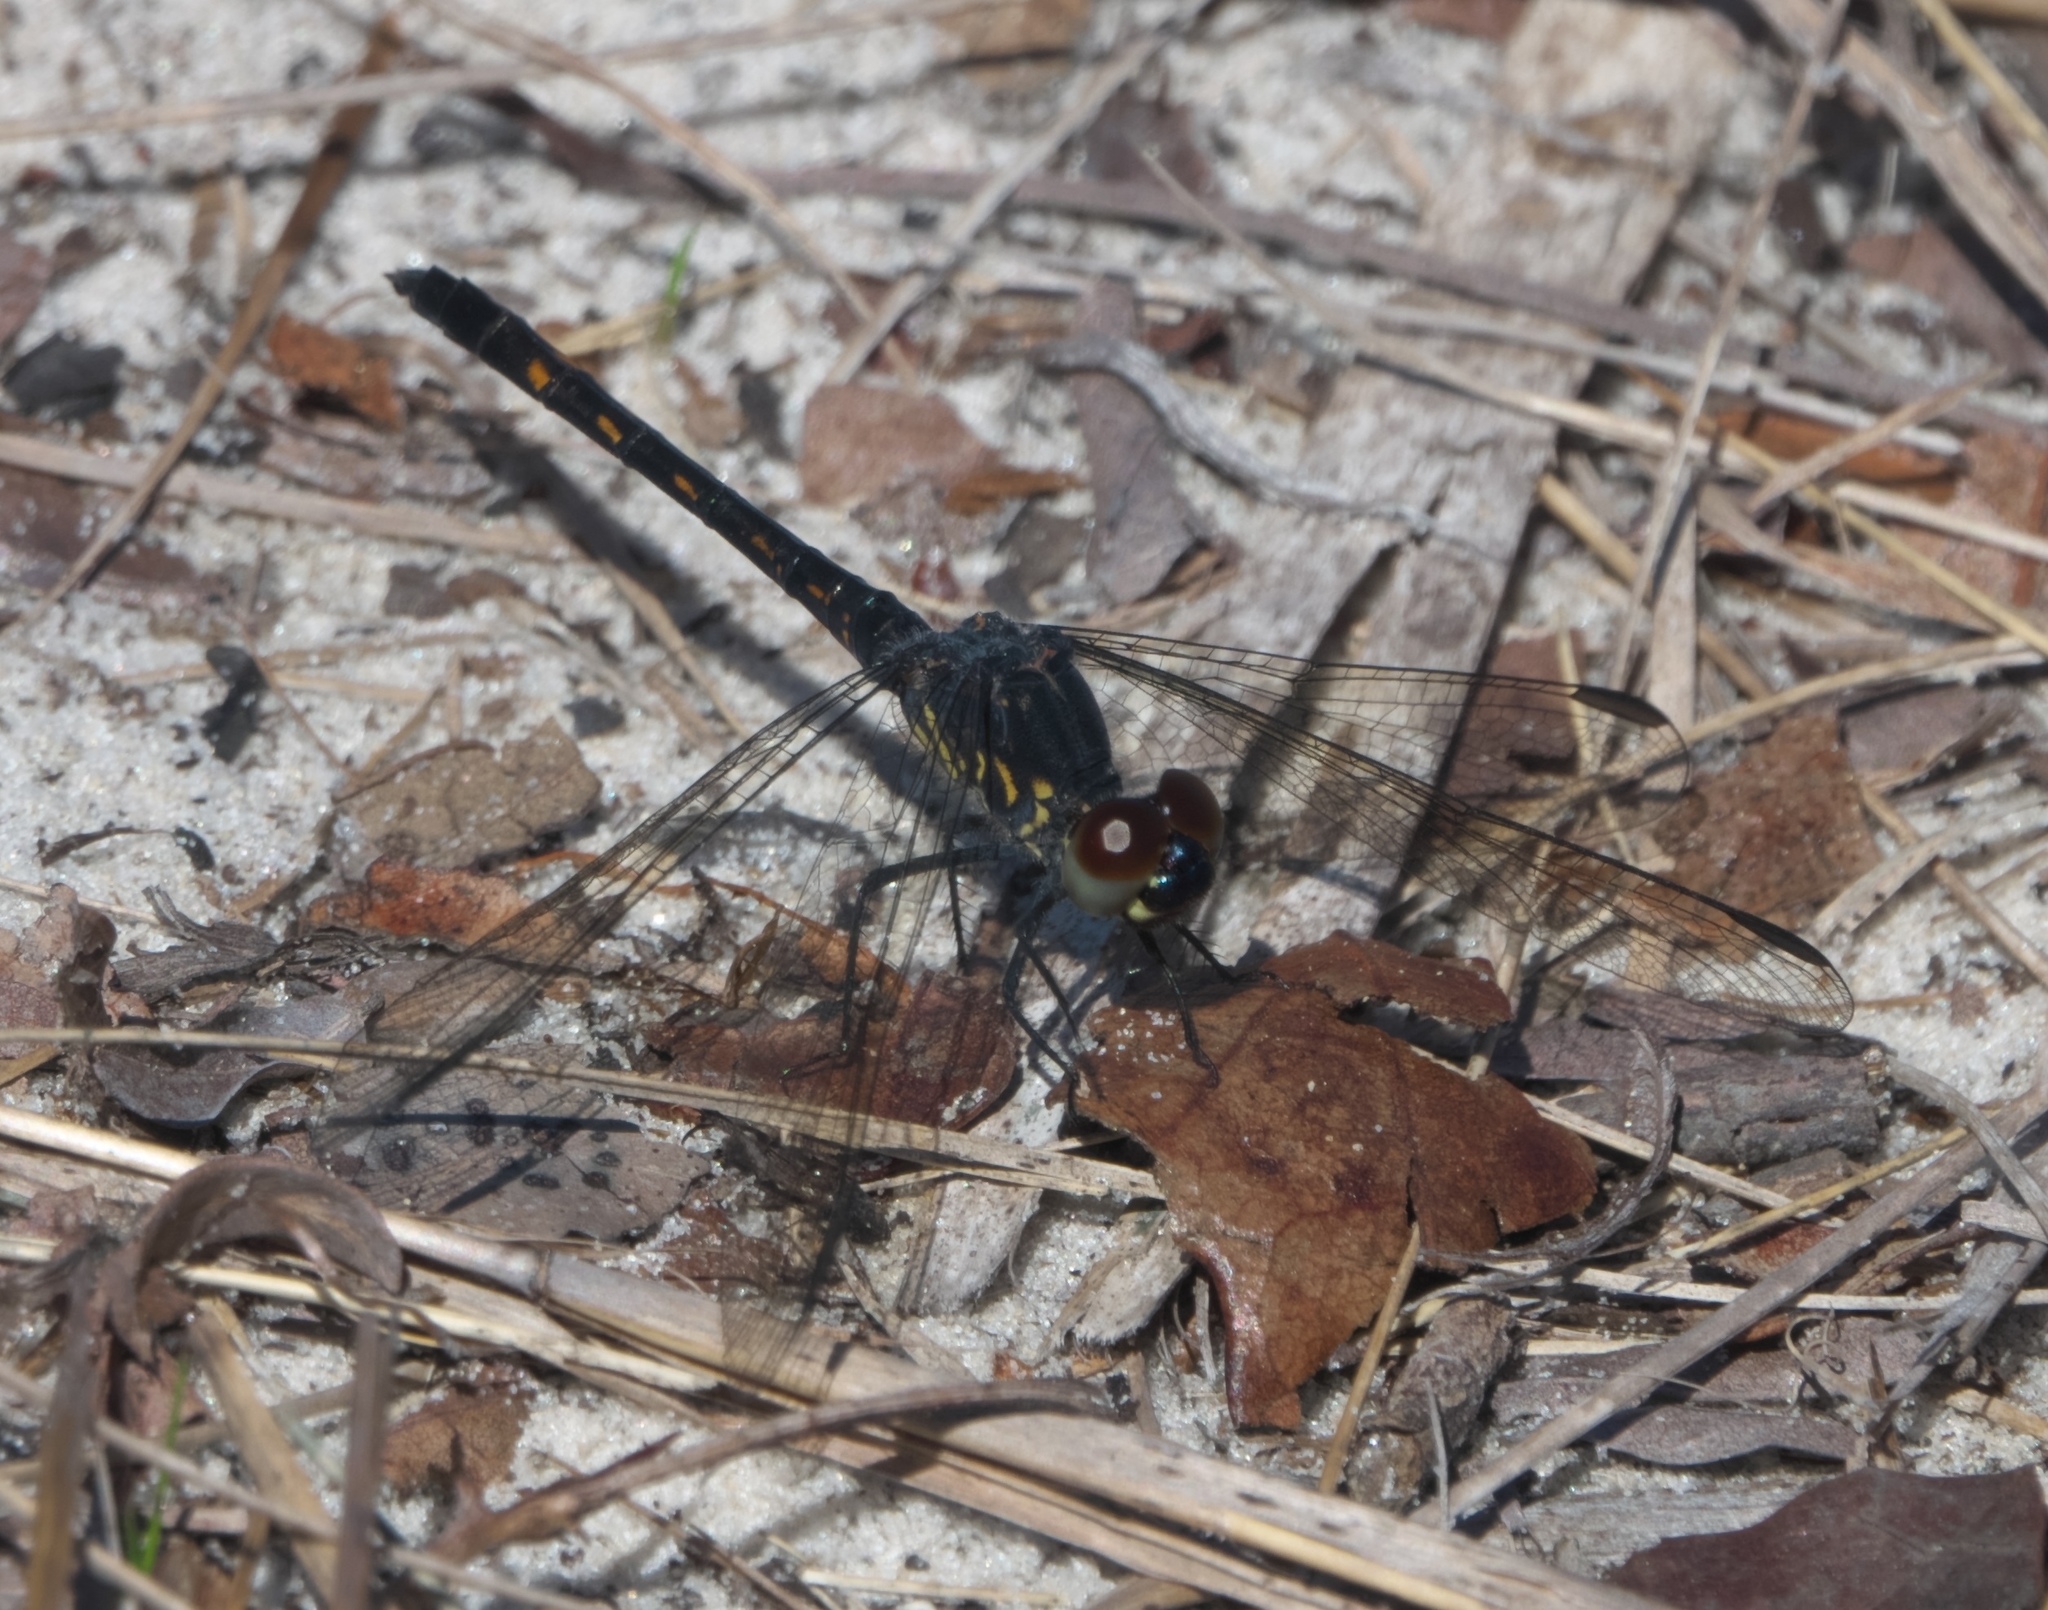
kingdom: Animalia
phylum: Arthropoda
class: Insecta
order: Odonata
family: Libellulidae
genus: Erythrodiplax
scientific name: Erythrodiplax berenice
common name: Seaside dragonlet
